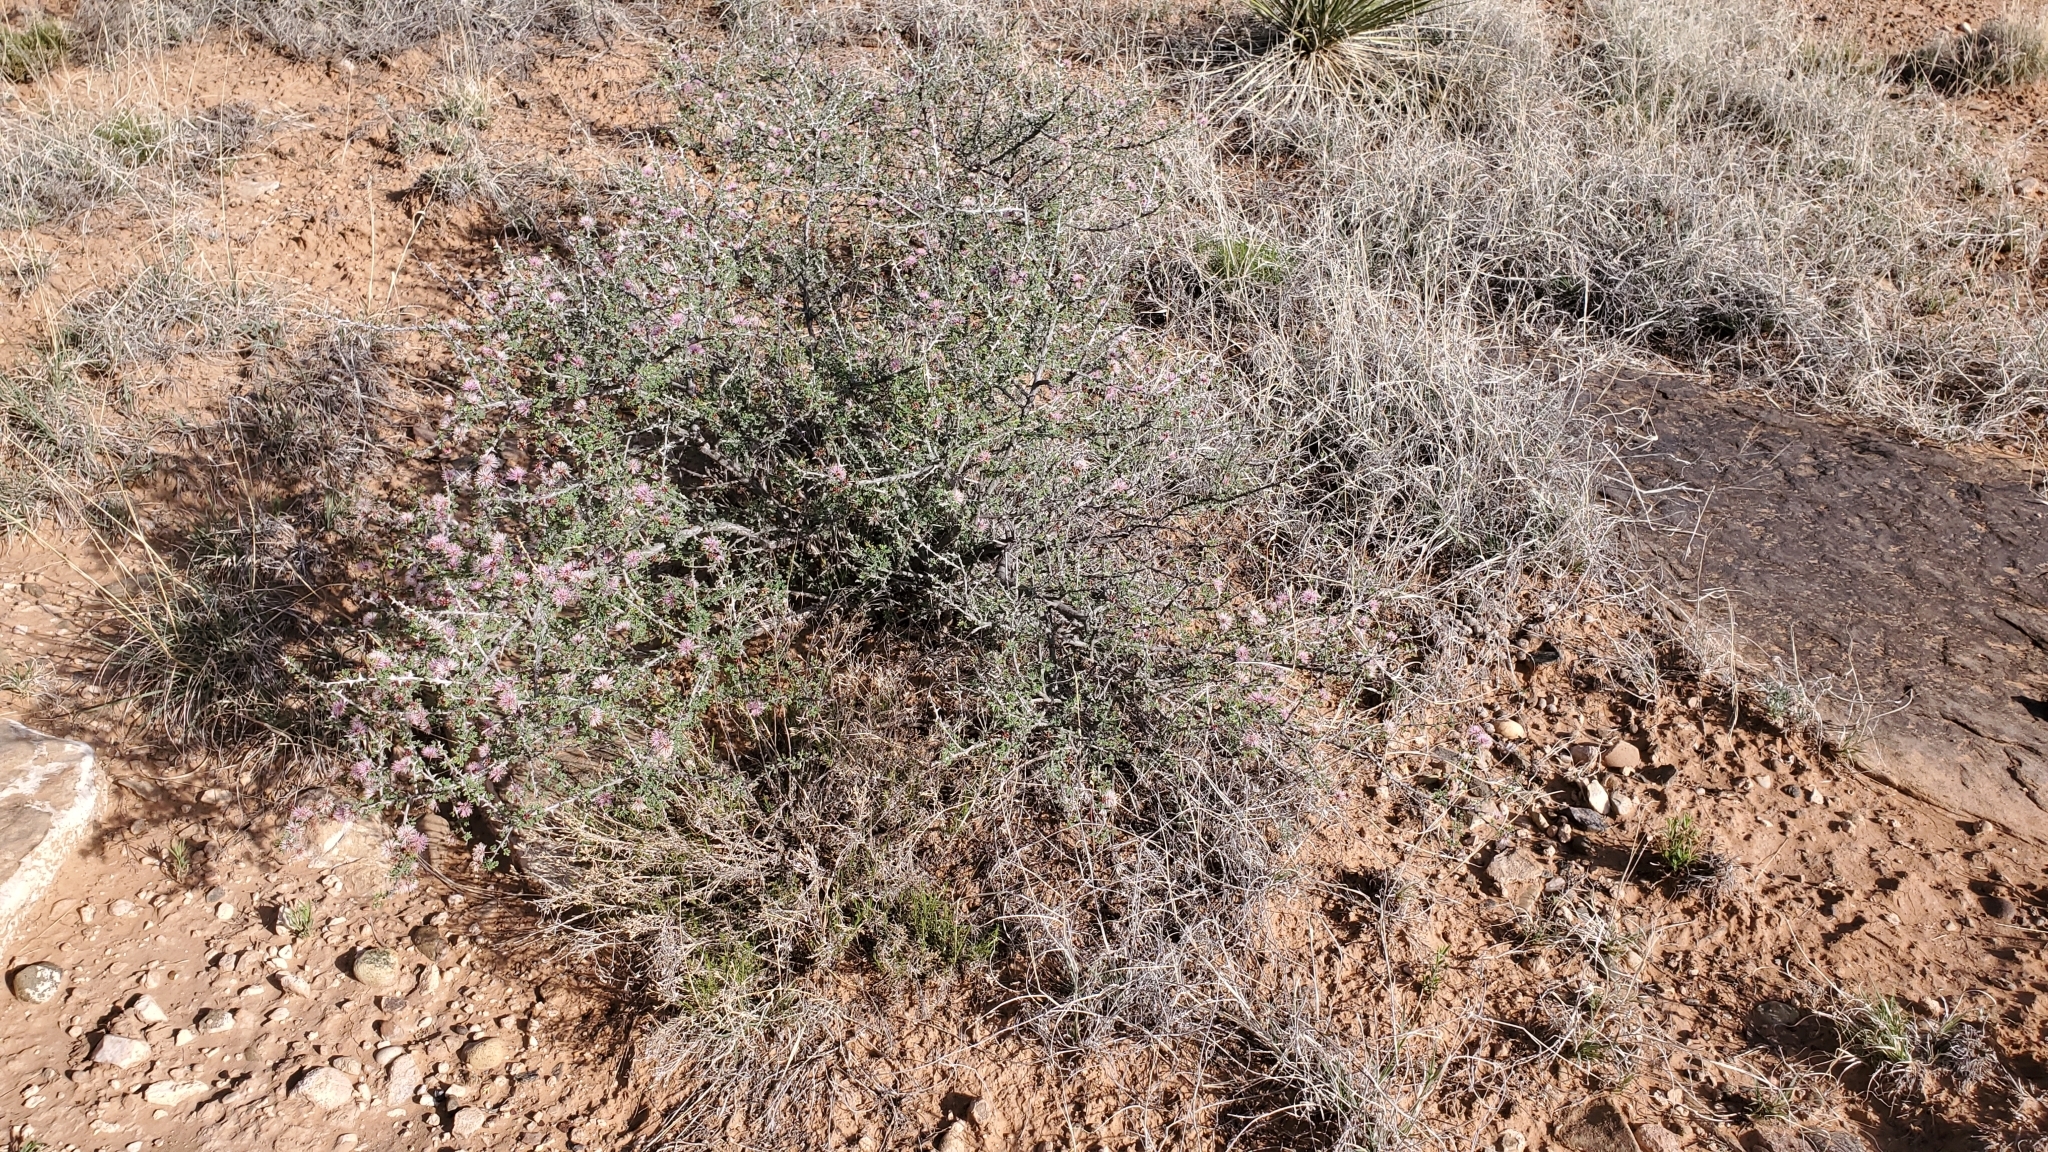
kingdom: Plantae
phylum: Tracheophyta
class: Magnoliopsida
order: Fabales
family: Fabaceae
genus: Mimosa
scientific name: Mimosa borealis
